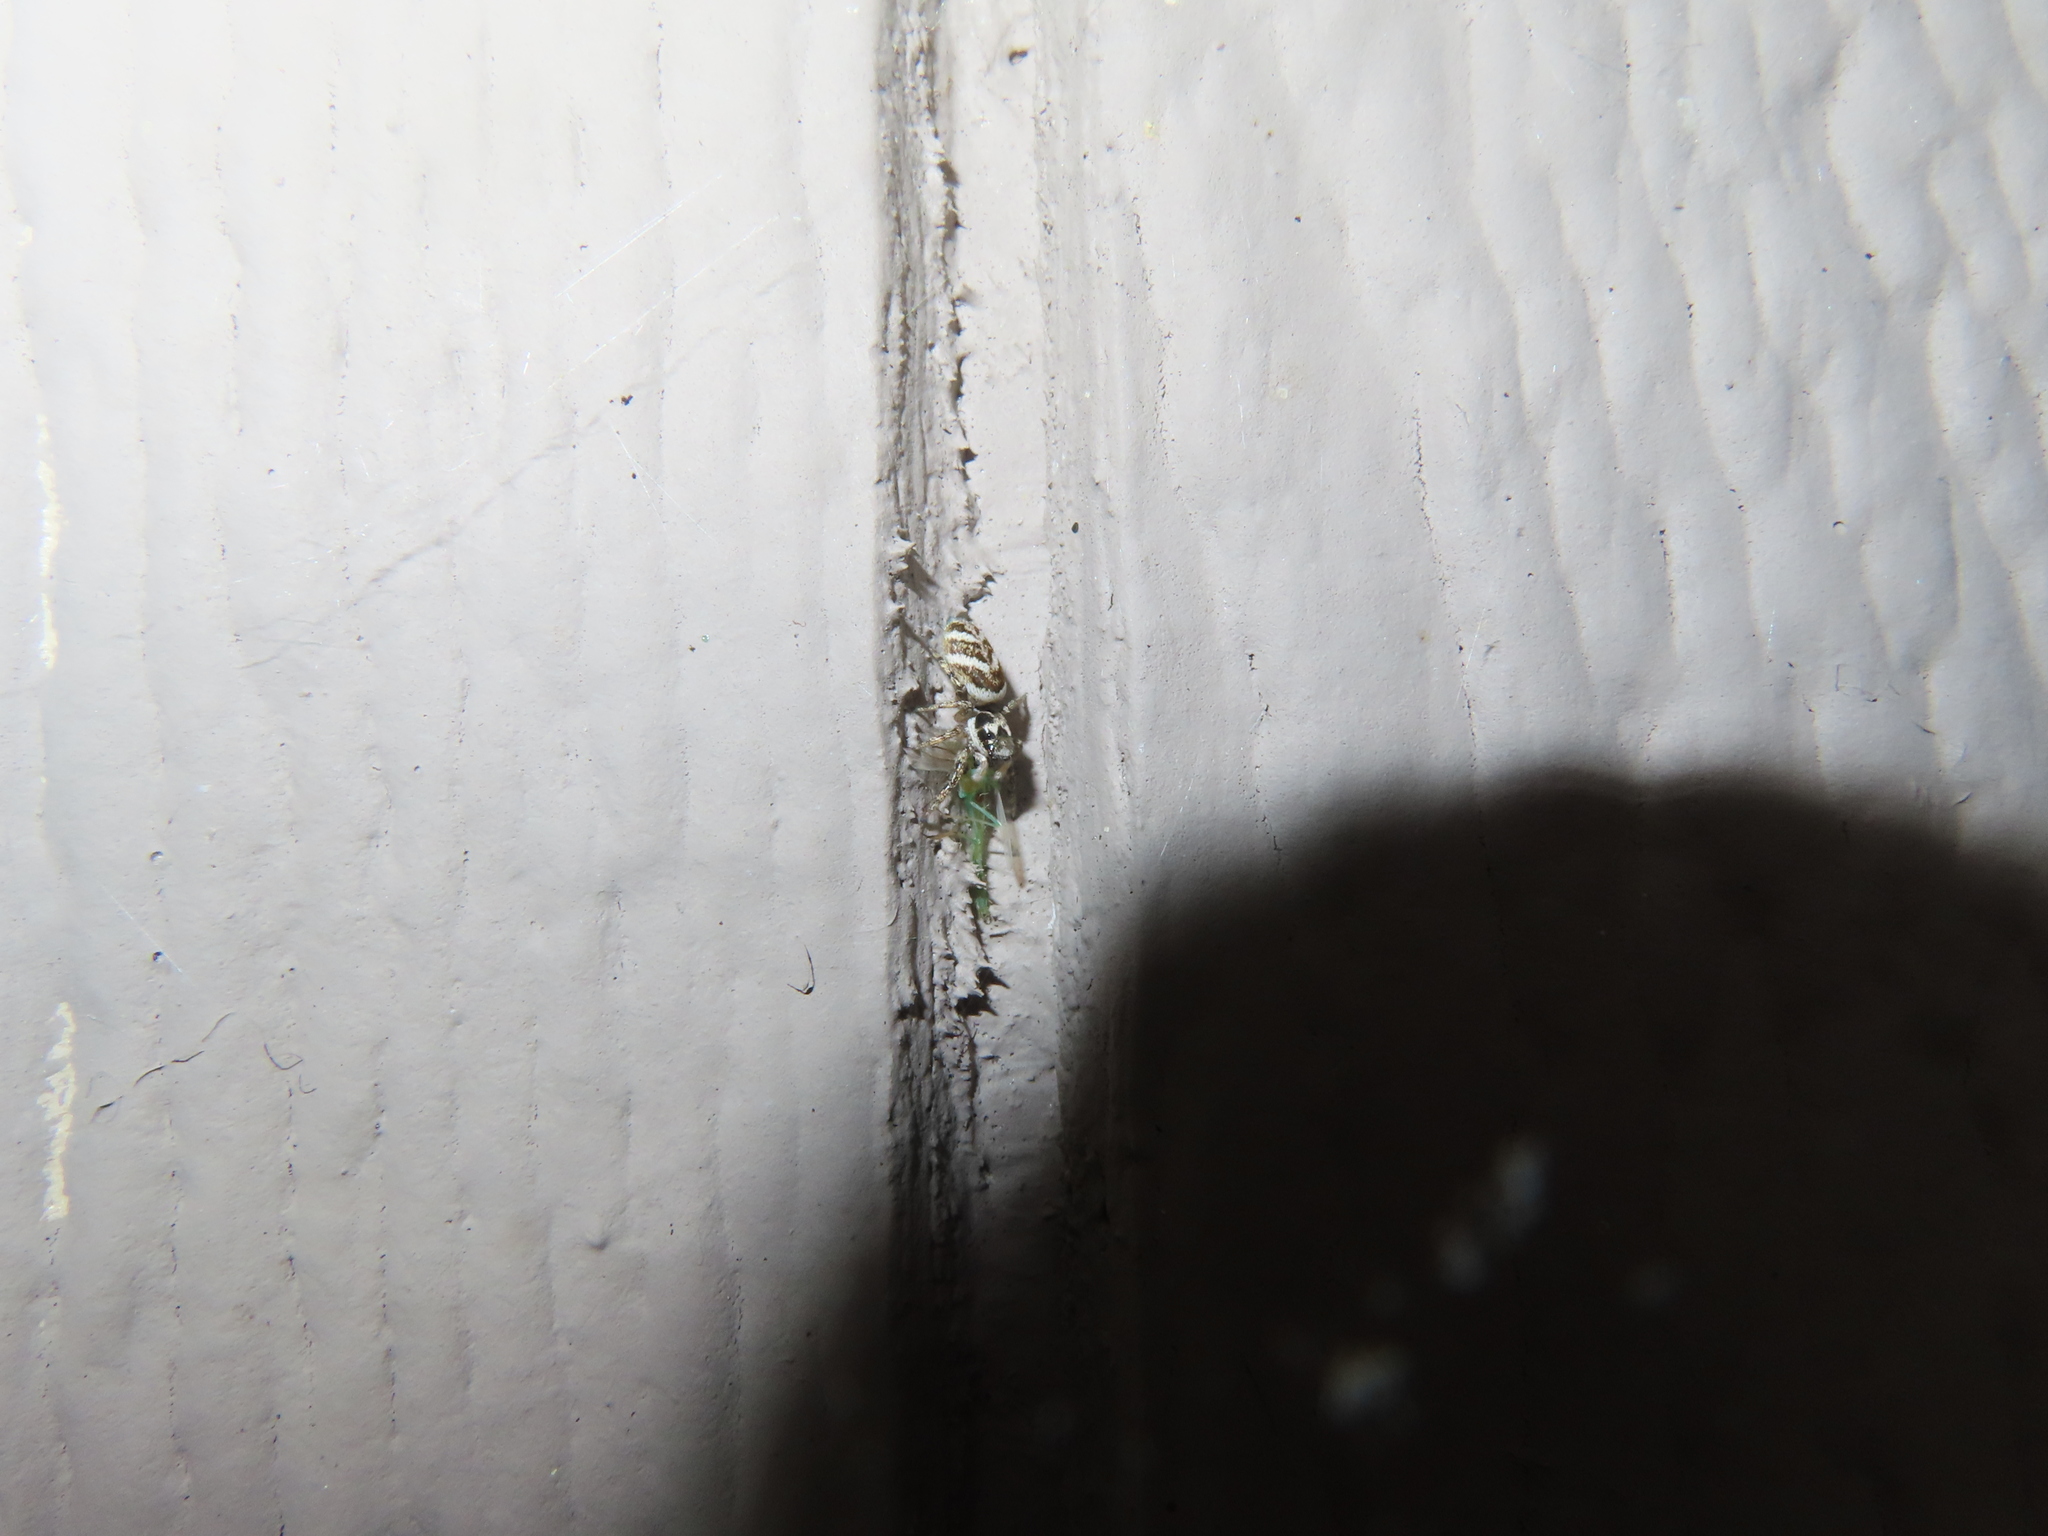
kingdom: Animalia
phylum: Arthropoda
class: Arachnida
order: Araneae
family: Salticidae
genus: Salticus
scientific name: Salticus scenicus
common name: Zebra jumper
